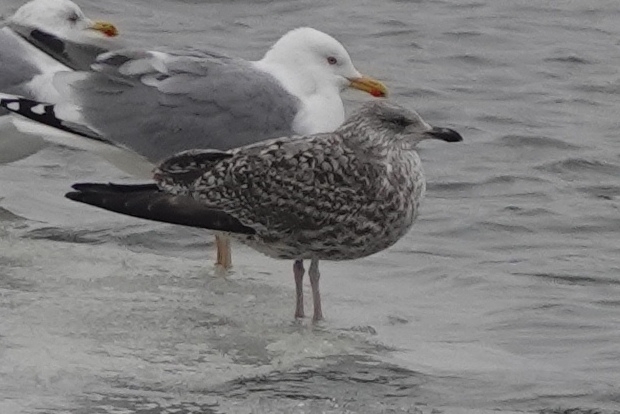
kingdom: Animalia
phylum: Chordata
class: Aves
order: Charadriiformes
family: Laridae
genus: Larus
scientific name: Larus argentatus
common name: Herring gull
